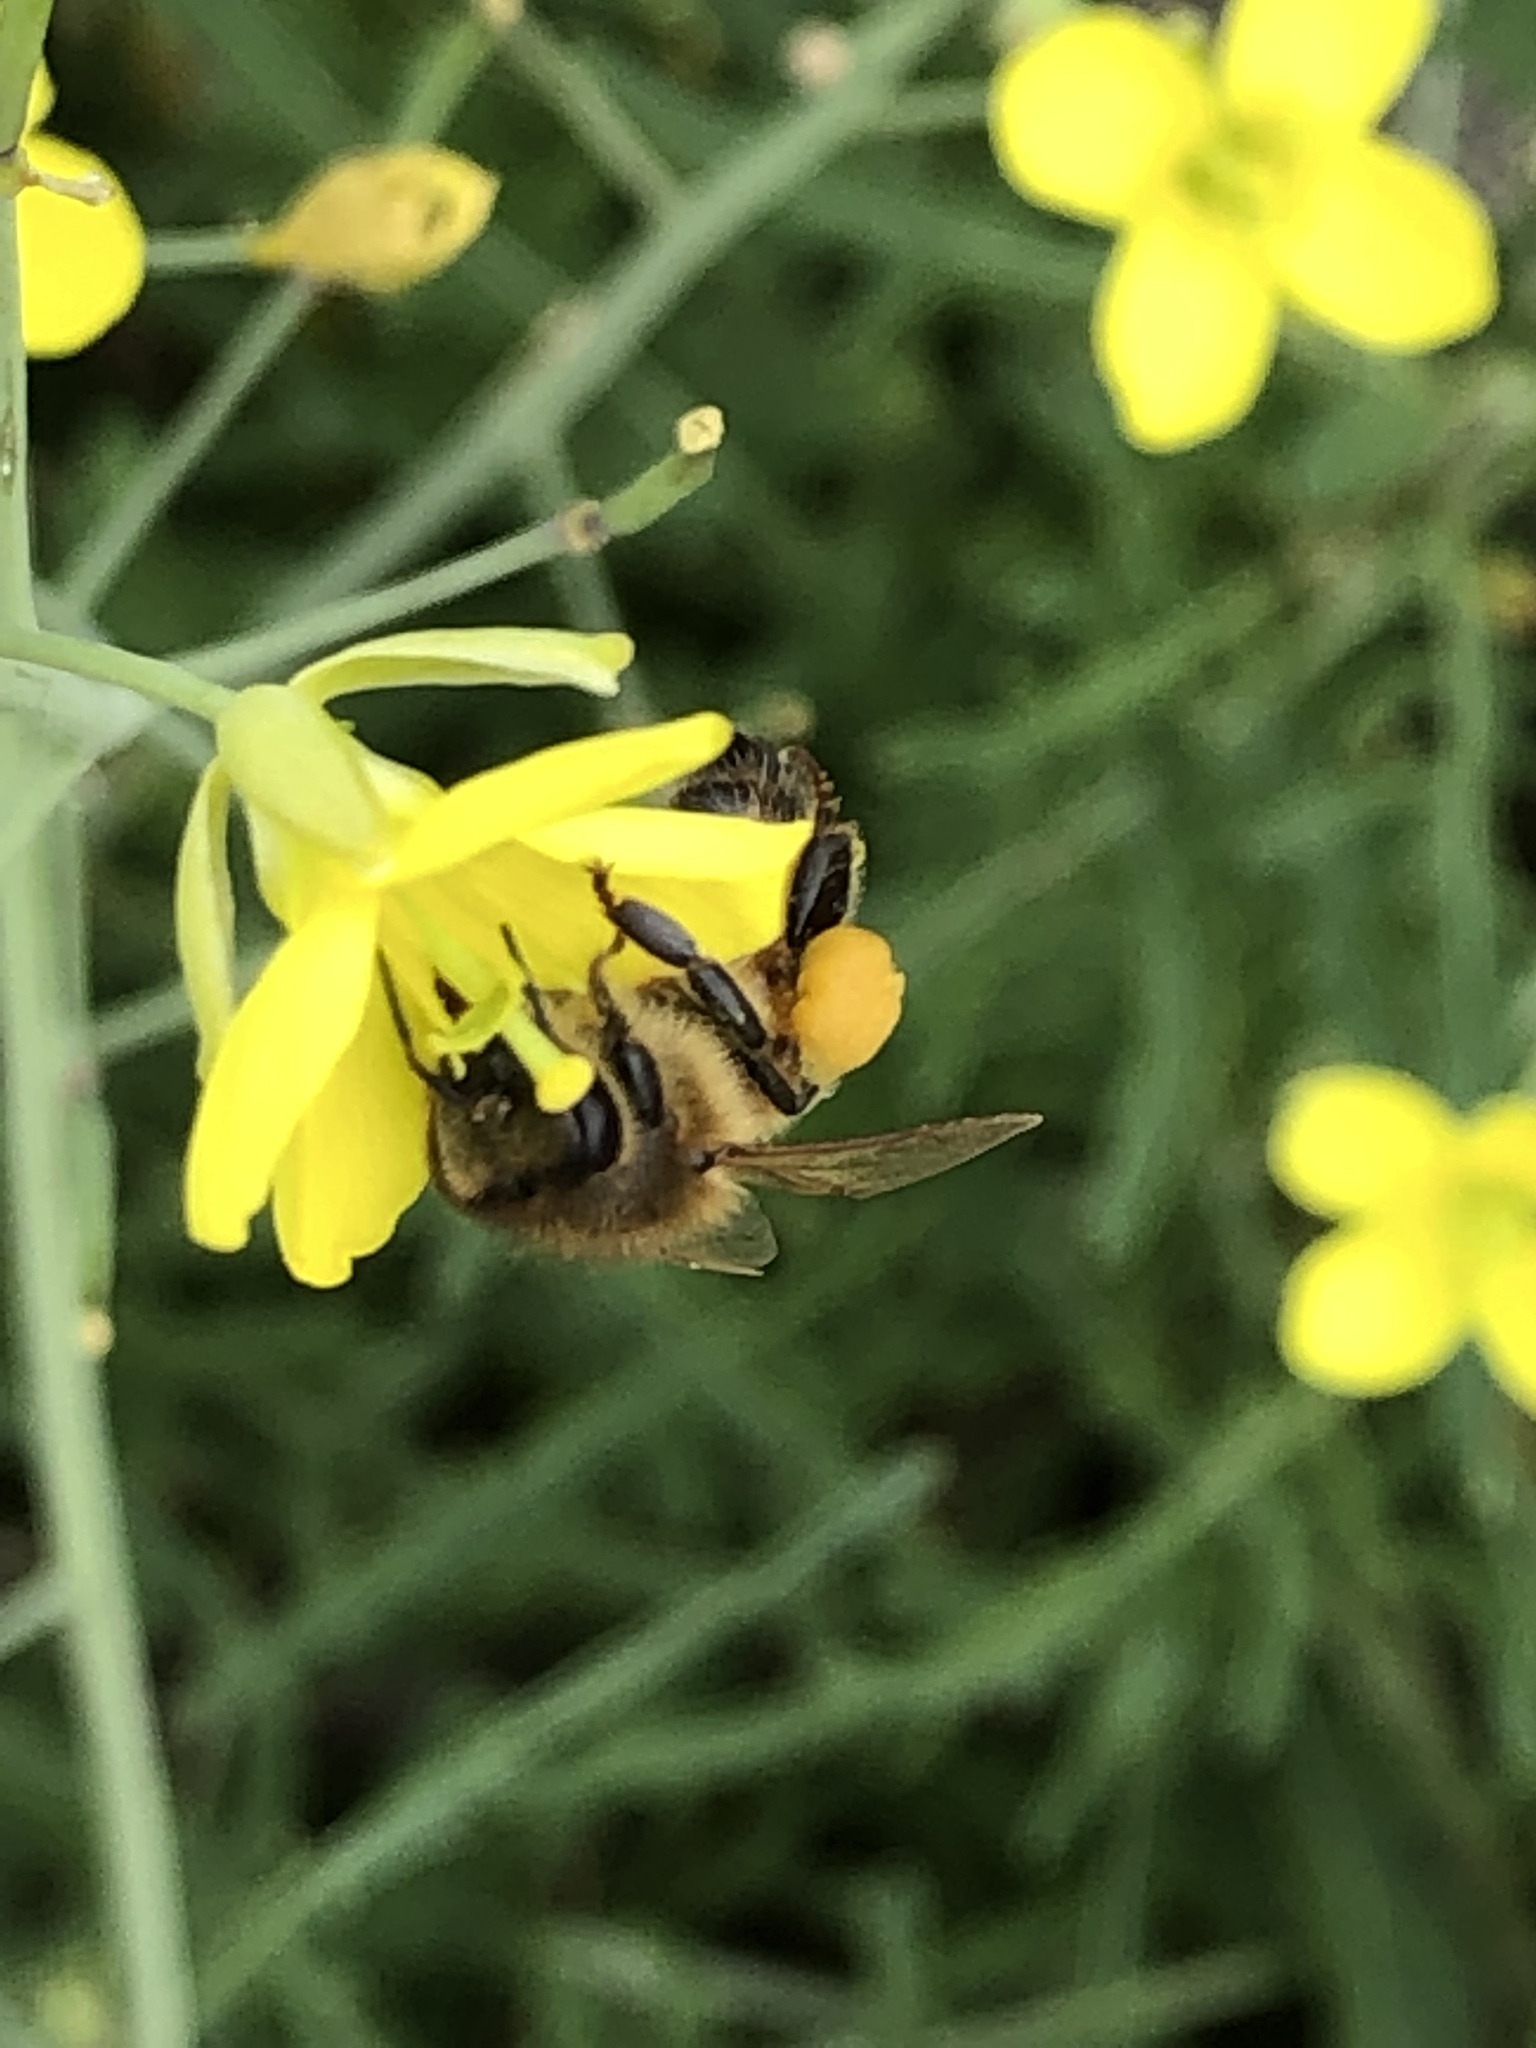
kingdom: Animalia
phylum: Arthropoda
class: Insecta
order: Hymenoptera
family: Apidae
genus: Apis
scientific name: Apis mellifera
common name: Honey bee
